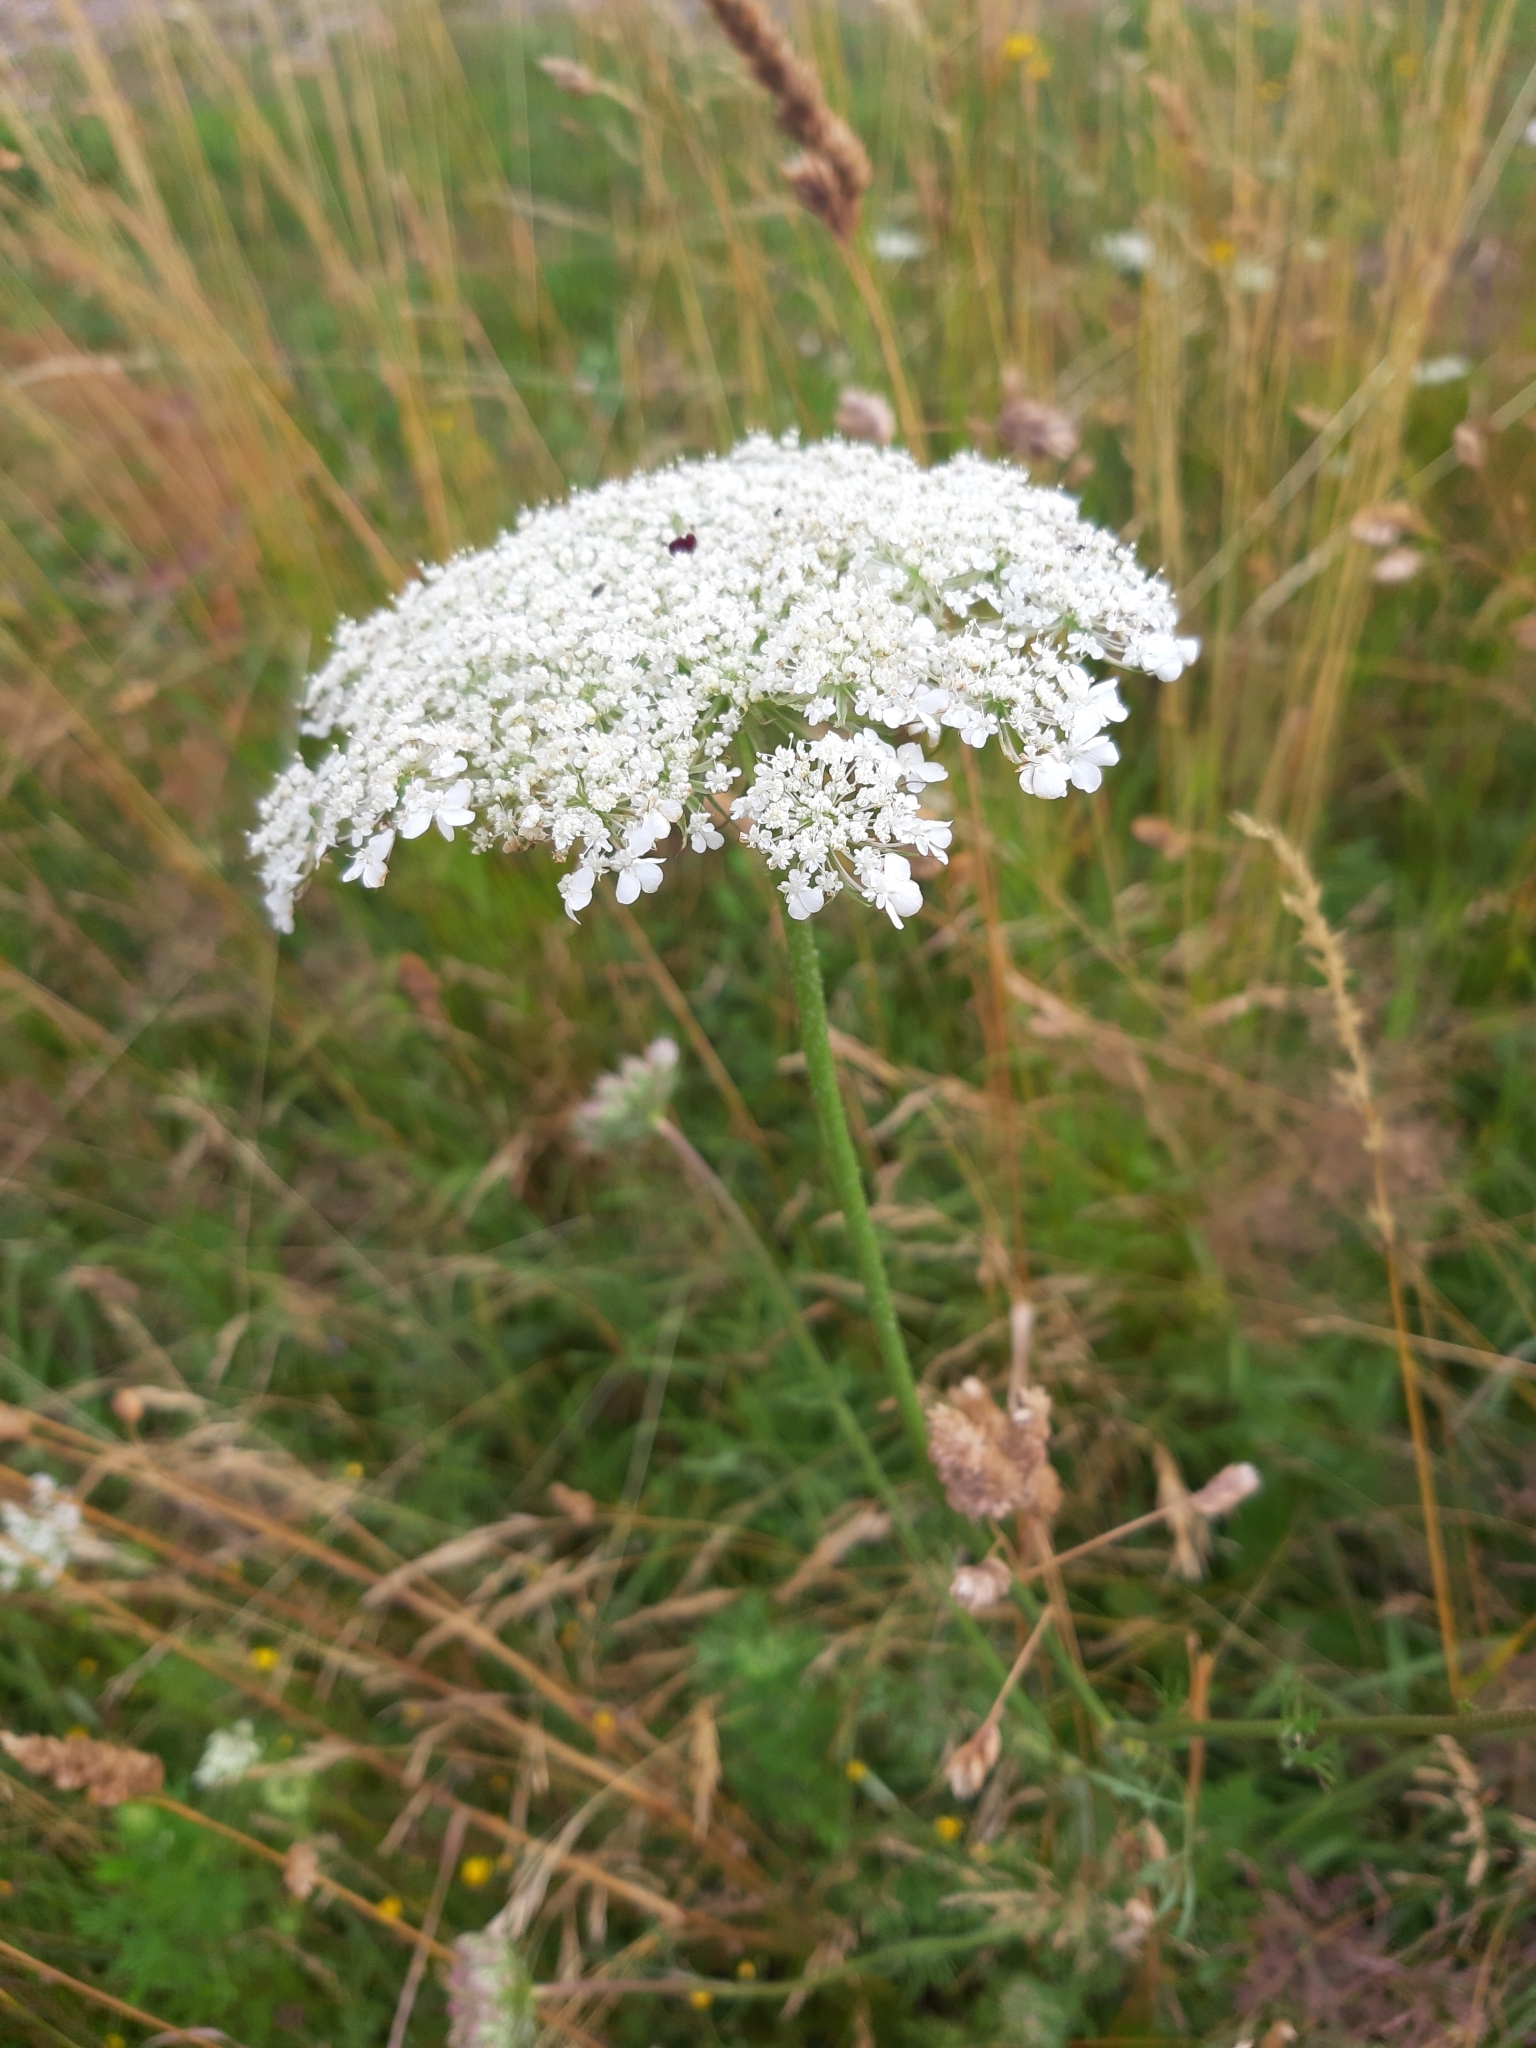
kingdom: Plantae
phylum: Tracheophyta
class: Magnoliopsida
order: Apiales
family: Apiaceae
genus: Daucus
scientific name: Daucus carota
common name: Wild carrot
